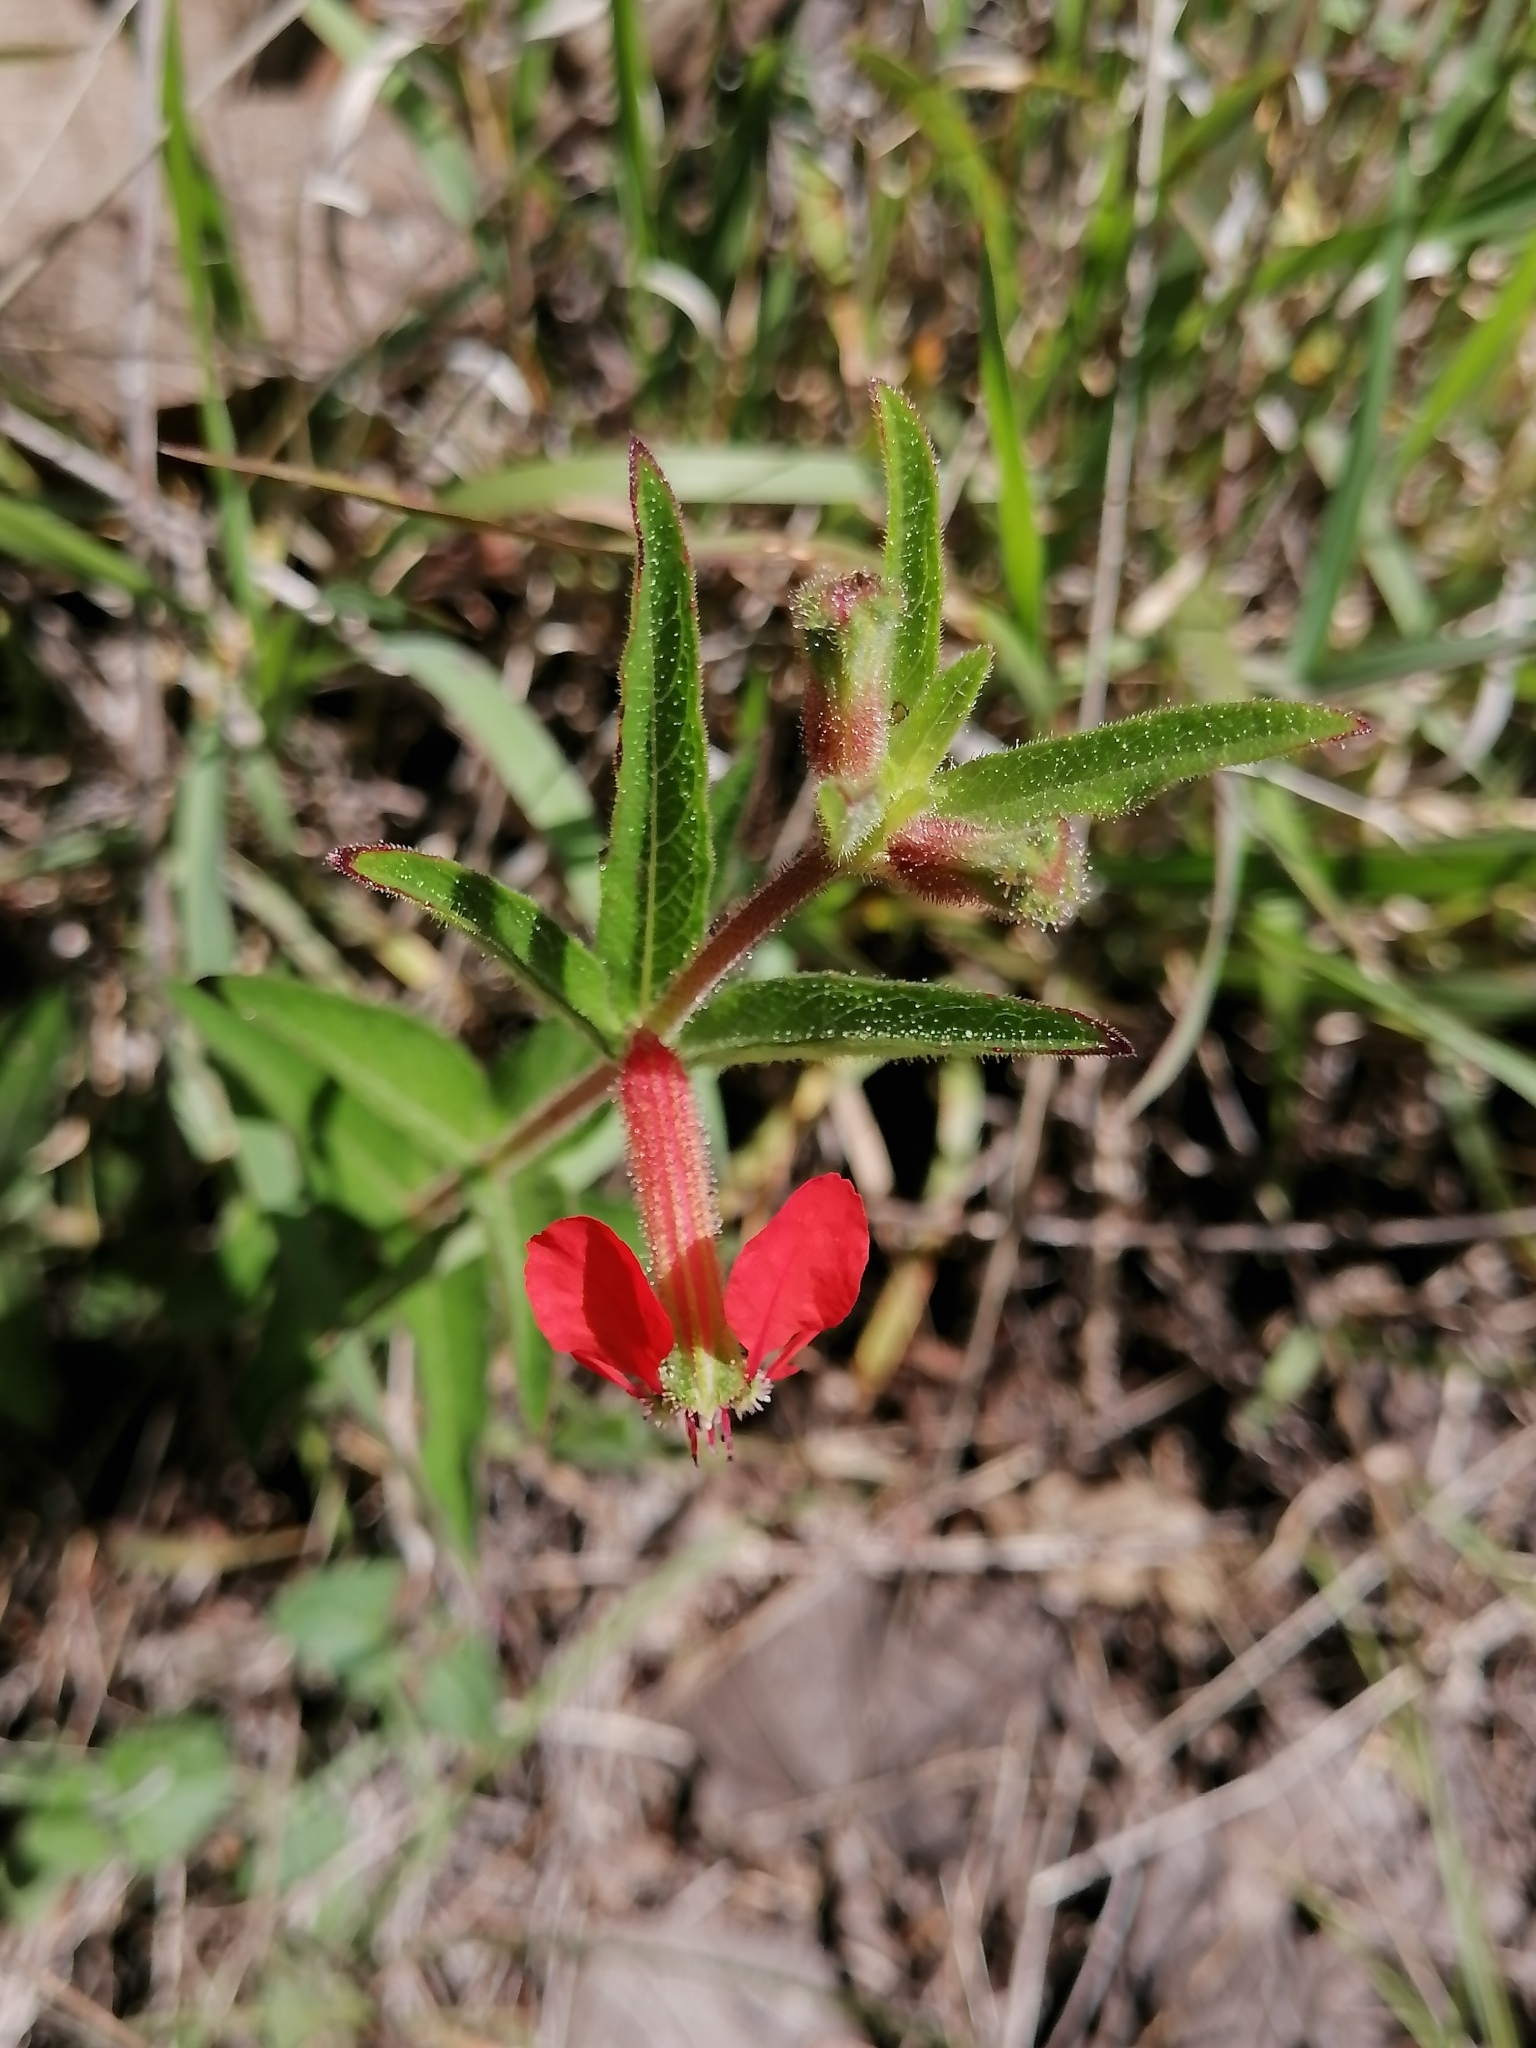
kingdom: Plantae
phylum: Tracheophyta
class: Magnoliopsida
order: Myrtales
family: Lythraceae
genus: Cuphea
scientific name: Cuphea heterophylla
